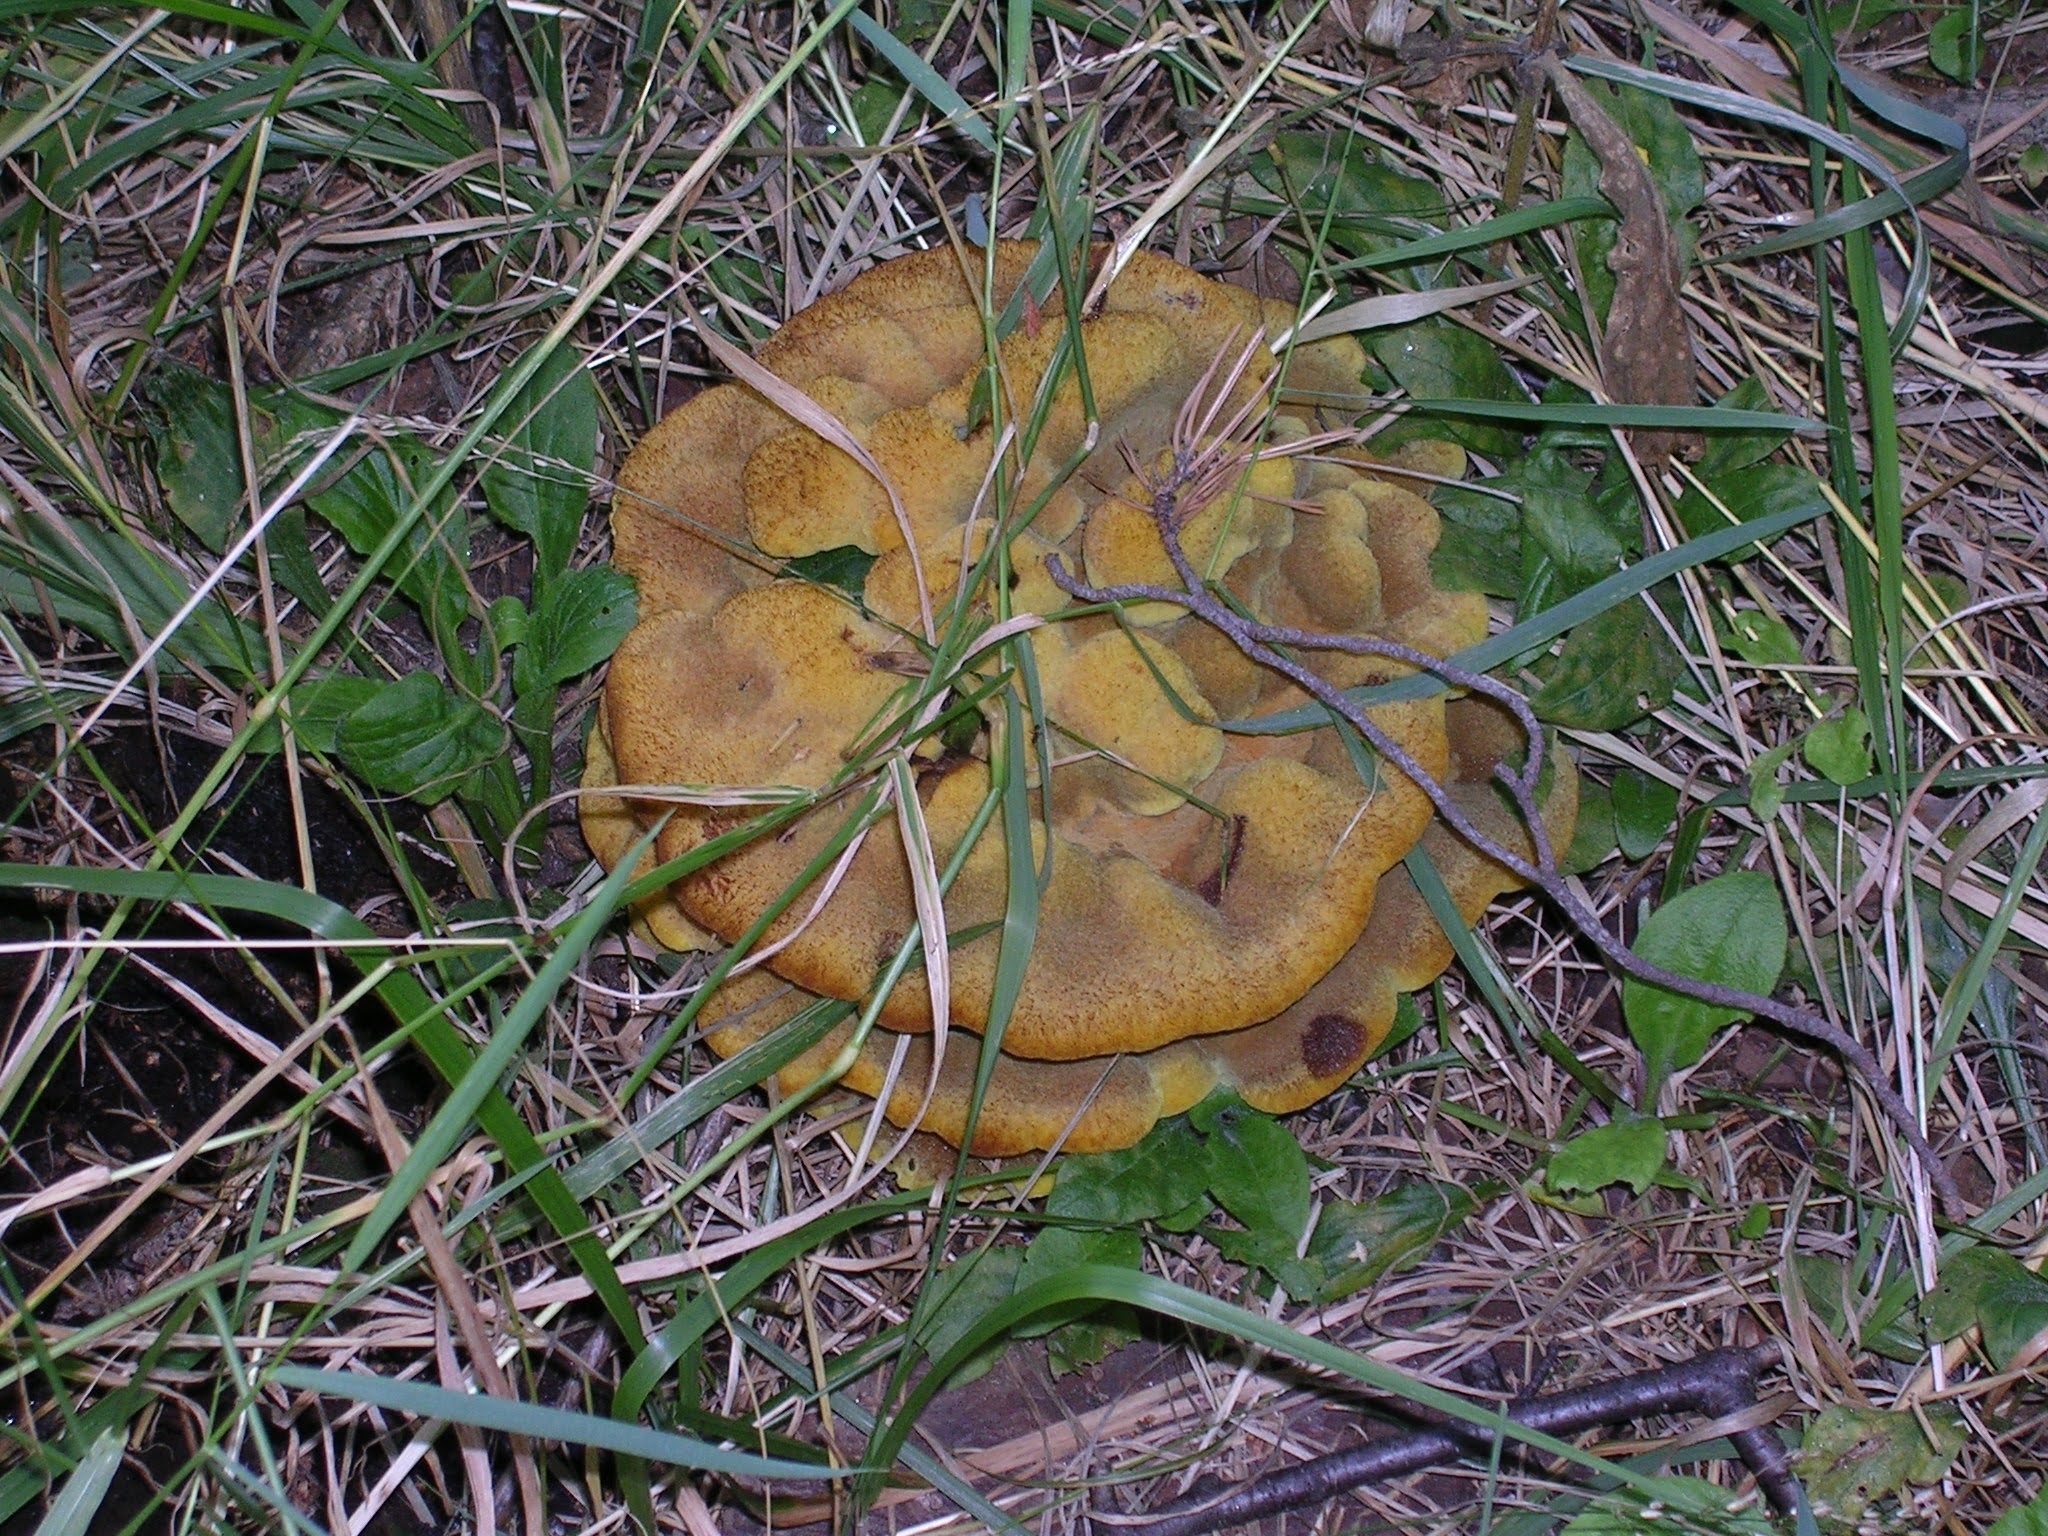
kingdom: Fungi
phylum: Basidiomycota
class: Agaricomycetes
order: Polyporales
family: Laetiporaceae
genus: Phaeolus
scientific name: Phaeolus schweinitzii
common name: Dyer's mazegill
